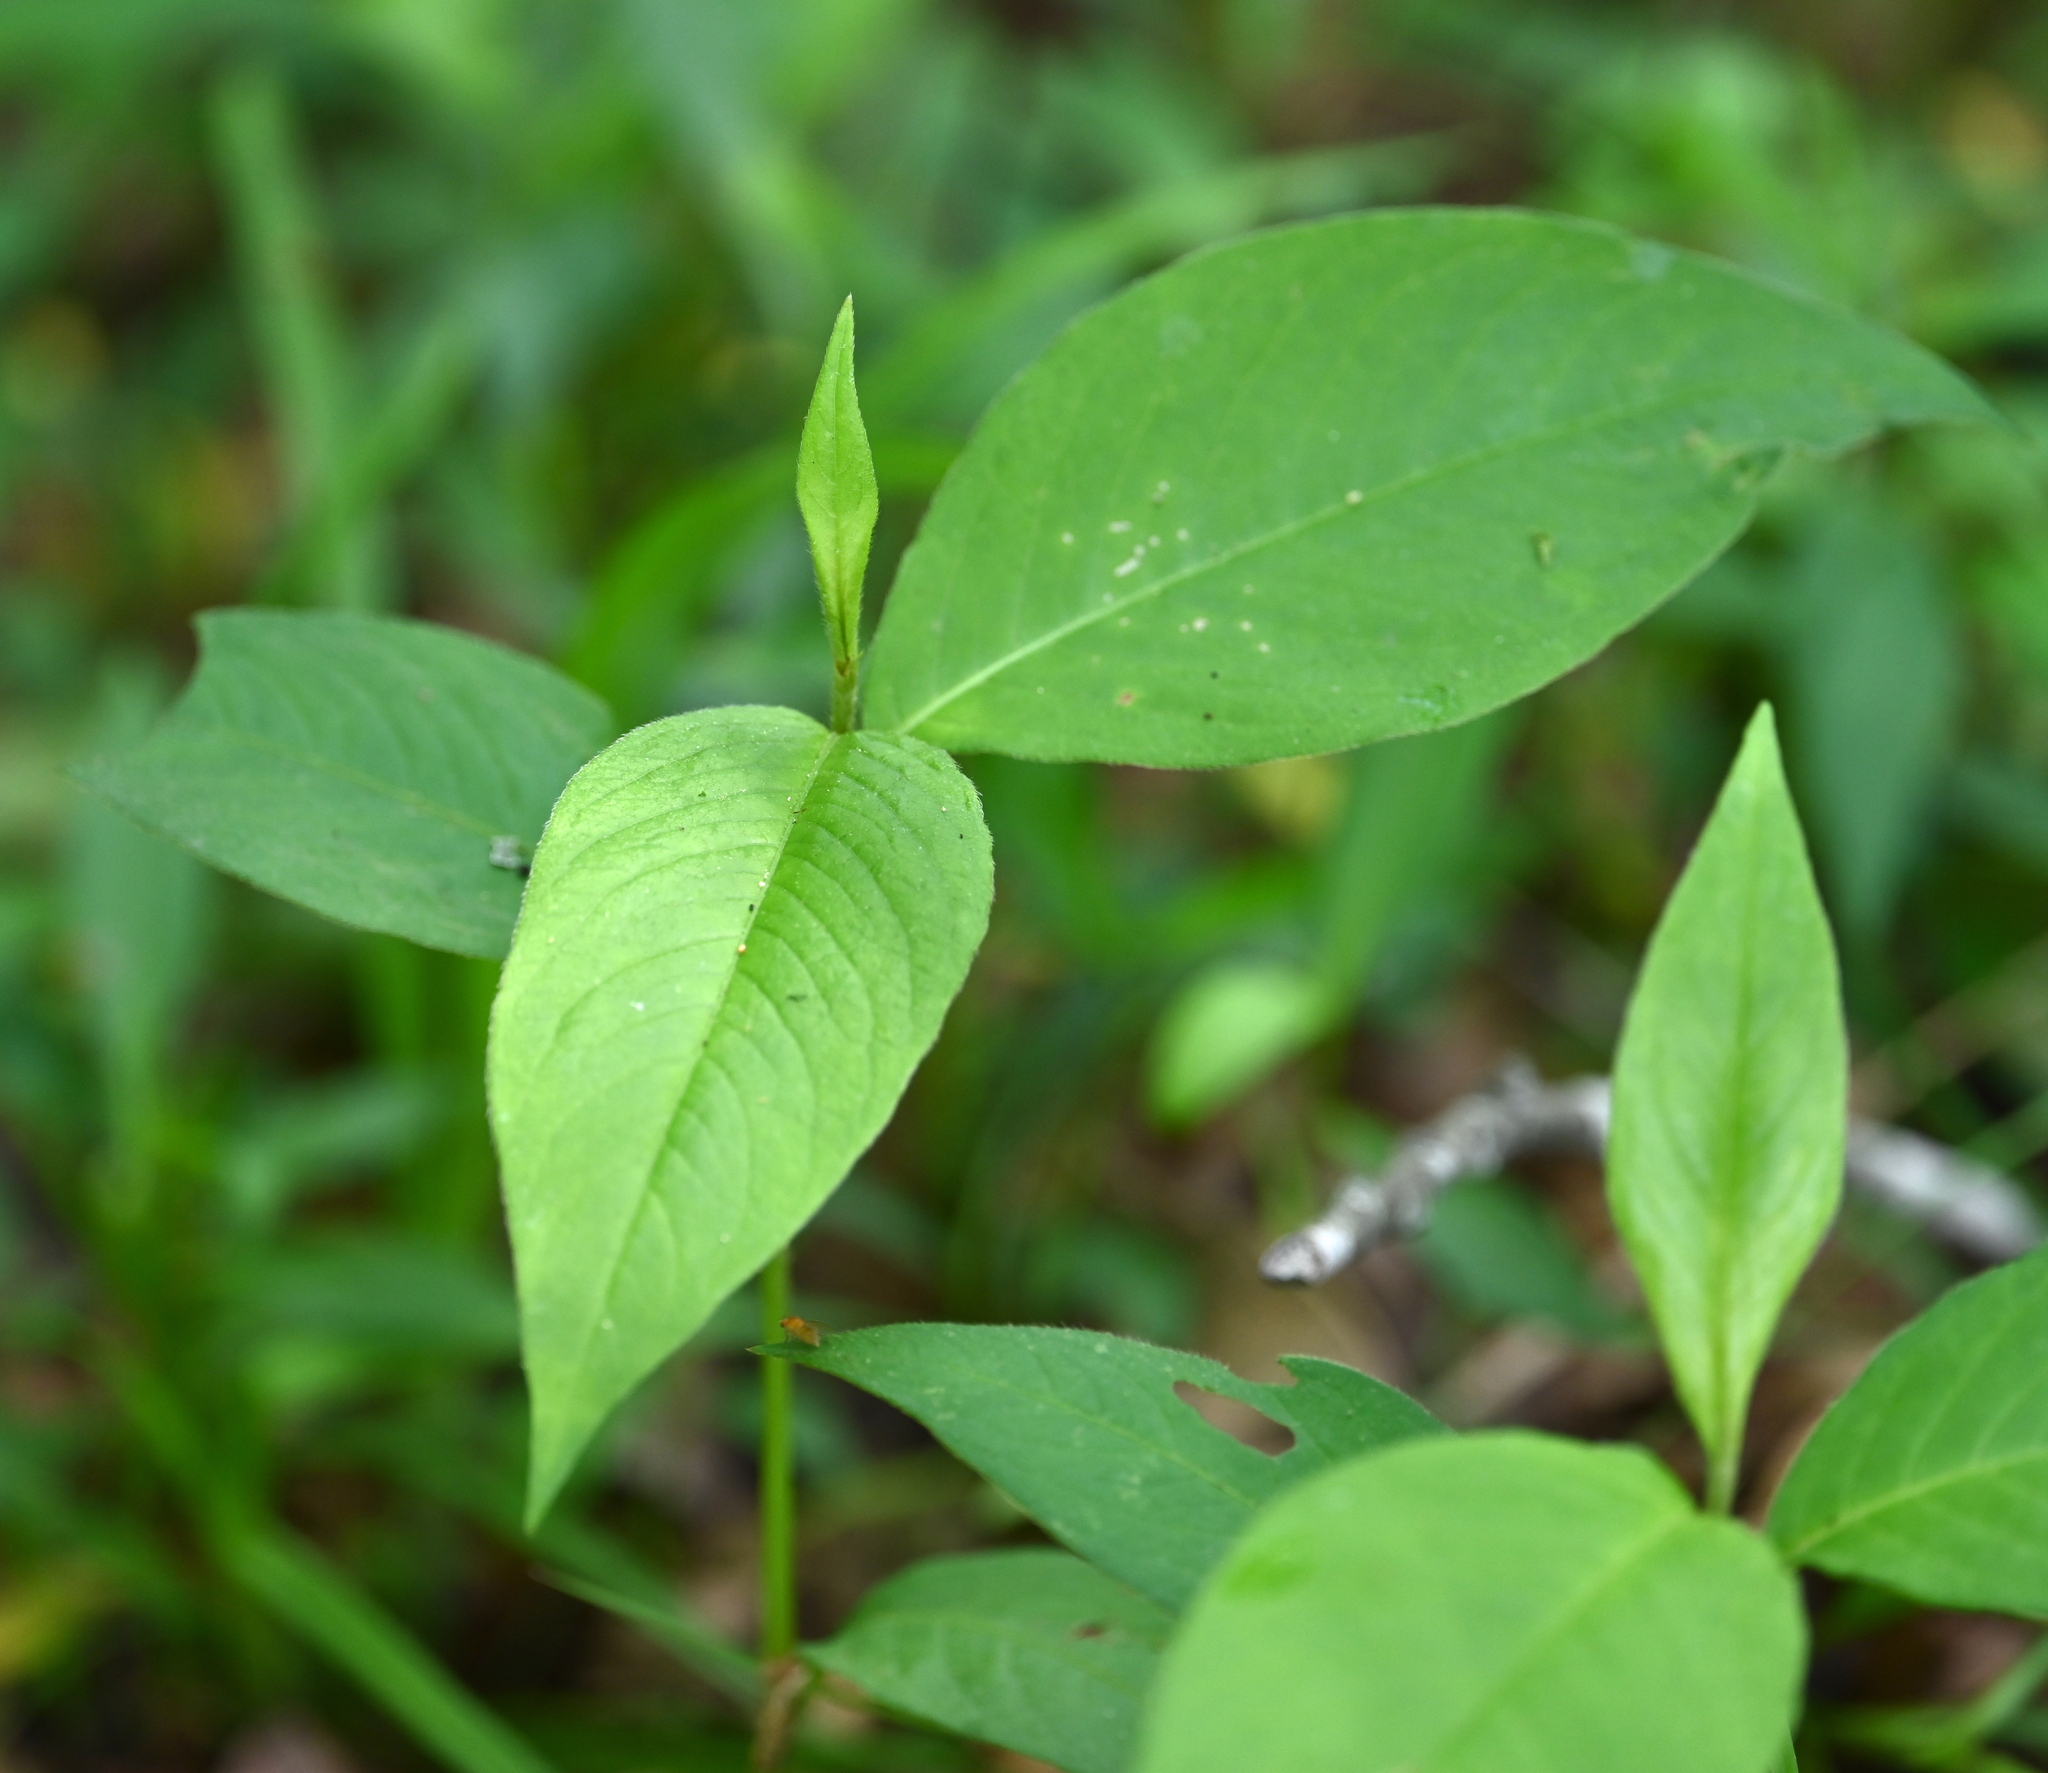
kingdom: Plantae
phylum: Tracheophyta
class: Magnoliopsida
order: Caryophyllales
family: Polygonaceae
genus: Persicaria
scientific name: Persicaria virginiana
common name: Jumpseed
